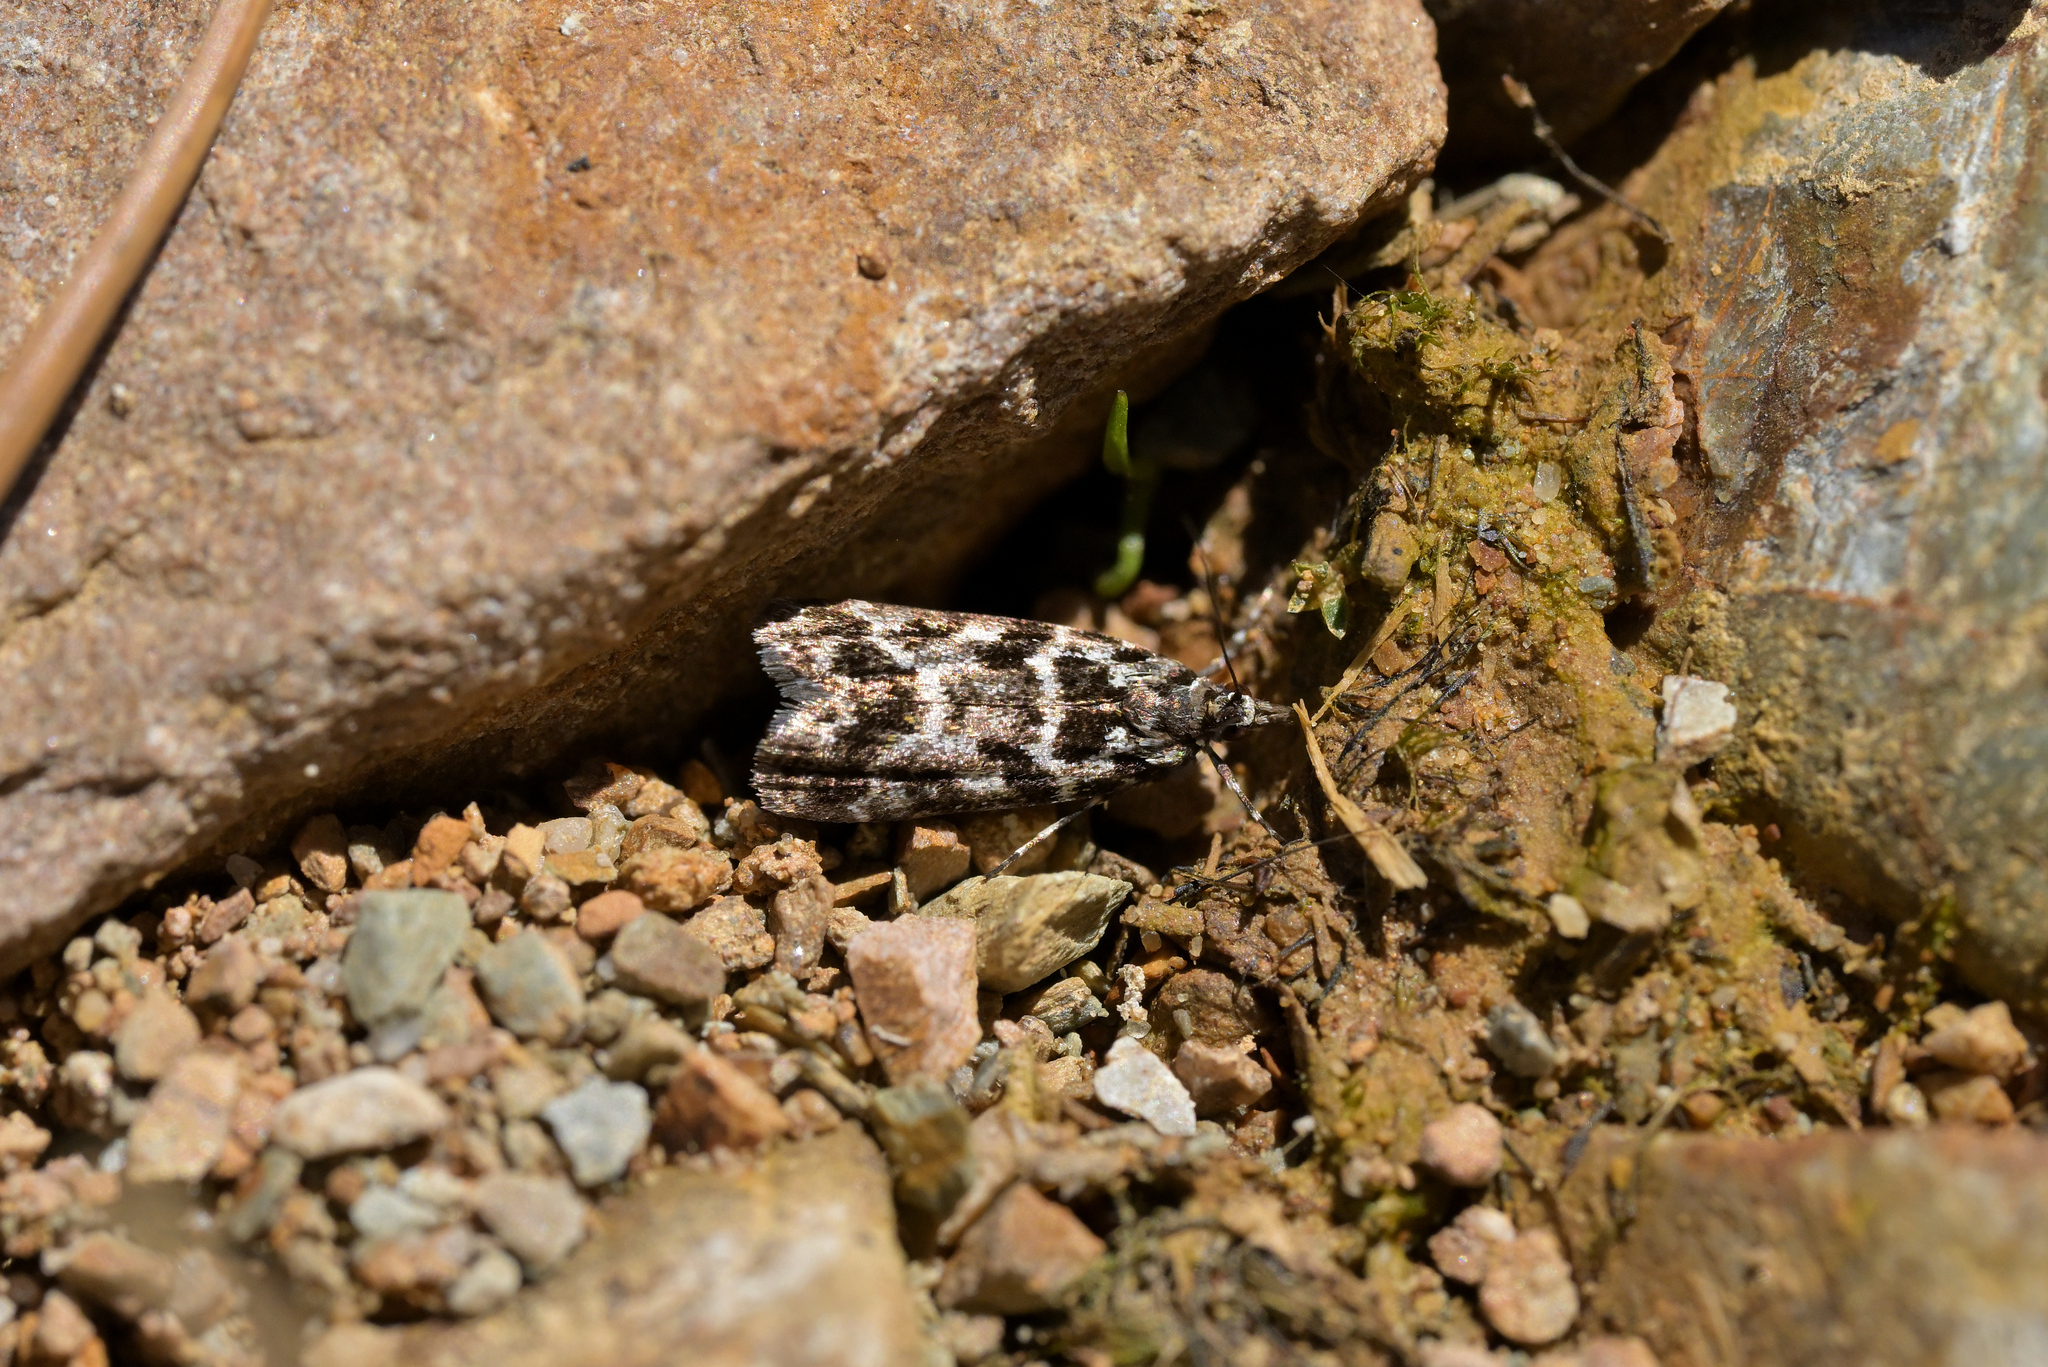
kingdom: Animalia
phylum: Arthropoda
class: Insecta
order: Lepidoptera
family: Crambidae
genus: Eudonia
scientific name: Eudonia critica
